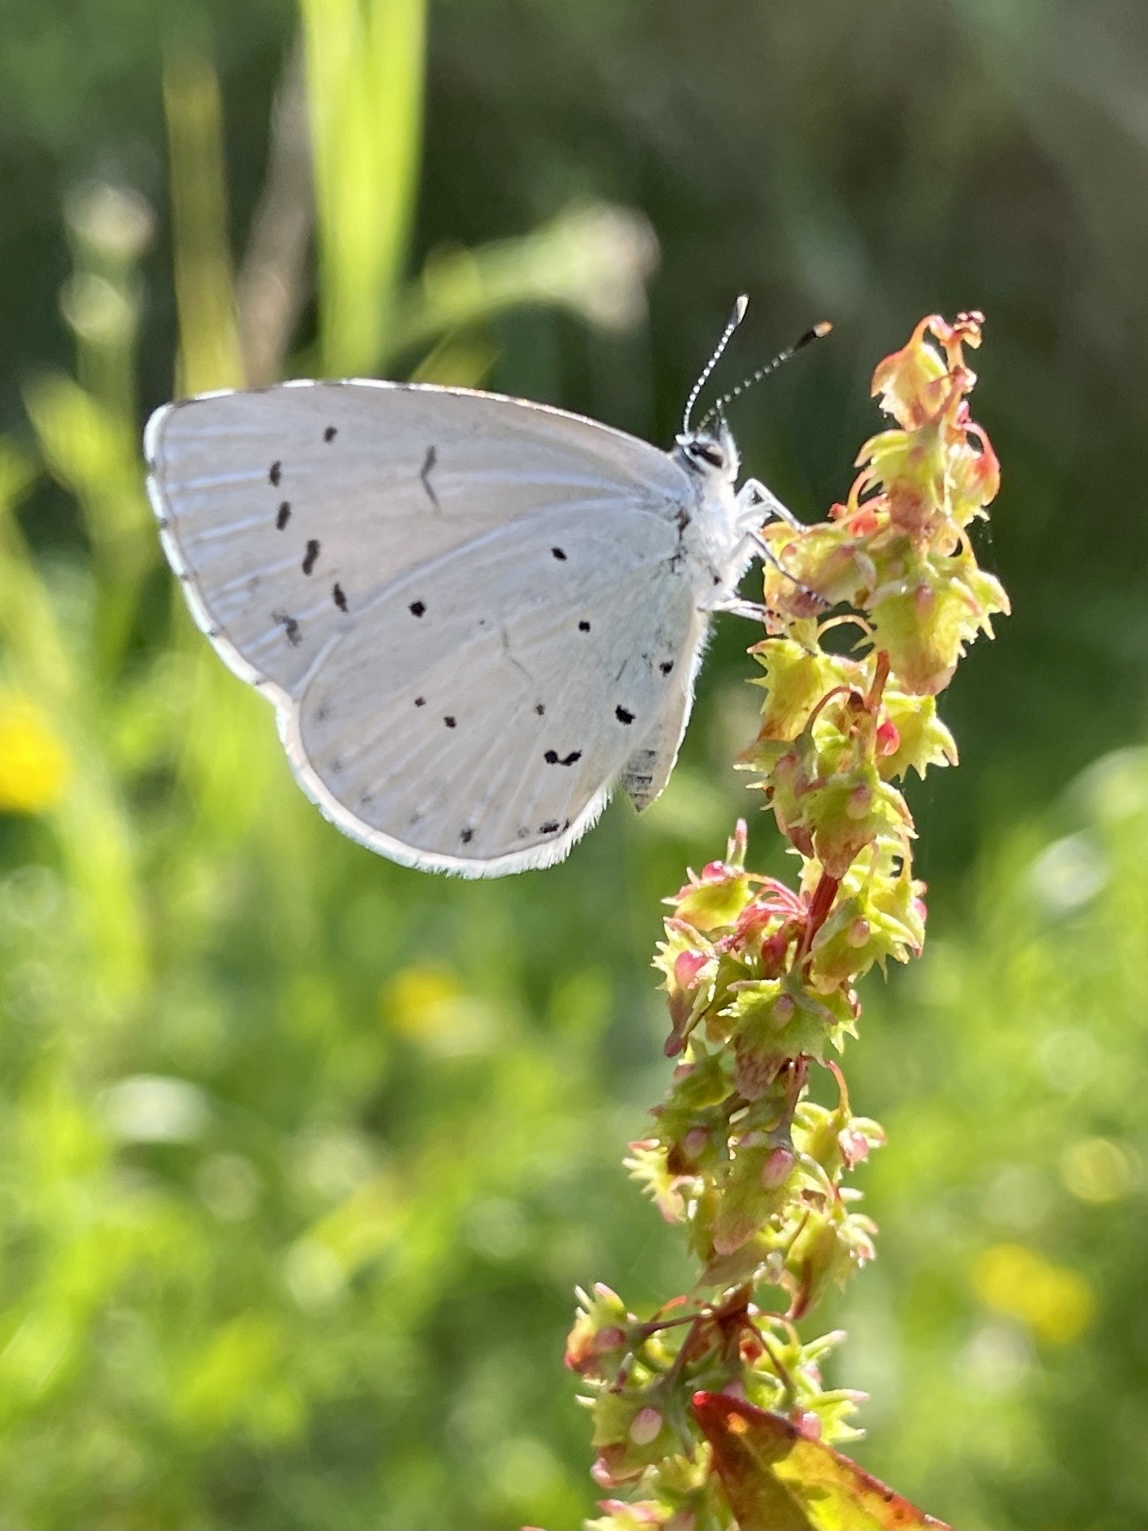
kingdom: Animalia
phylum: Arthropoda
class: Insecta
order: Lepidoptera
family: Lycaenidae
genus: Celastrina
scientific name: Celastrina argiolus
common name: Holly blue
